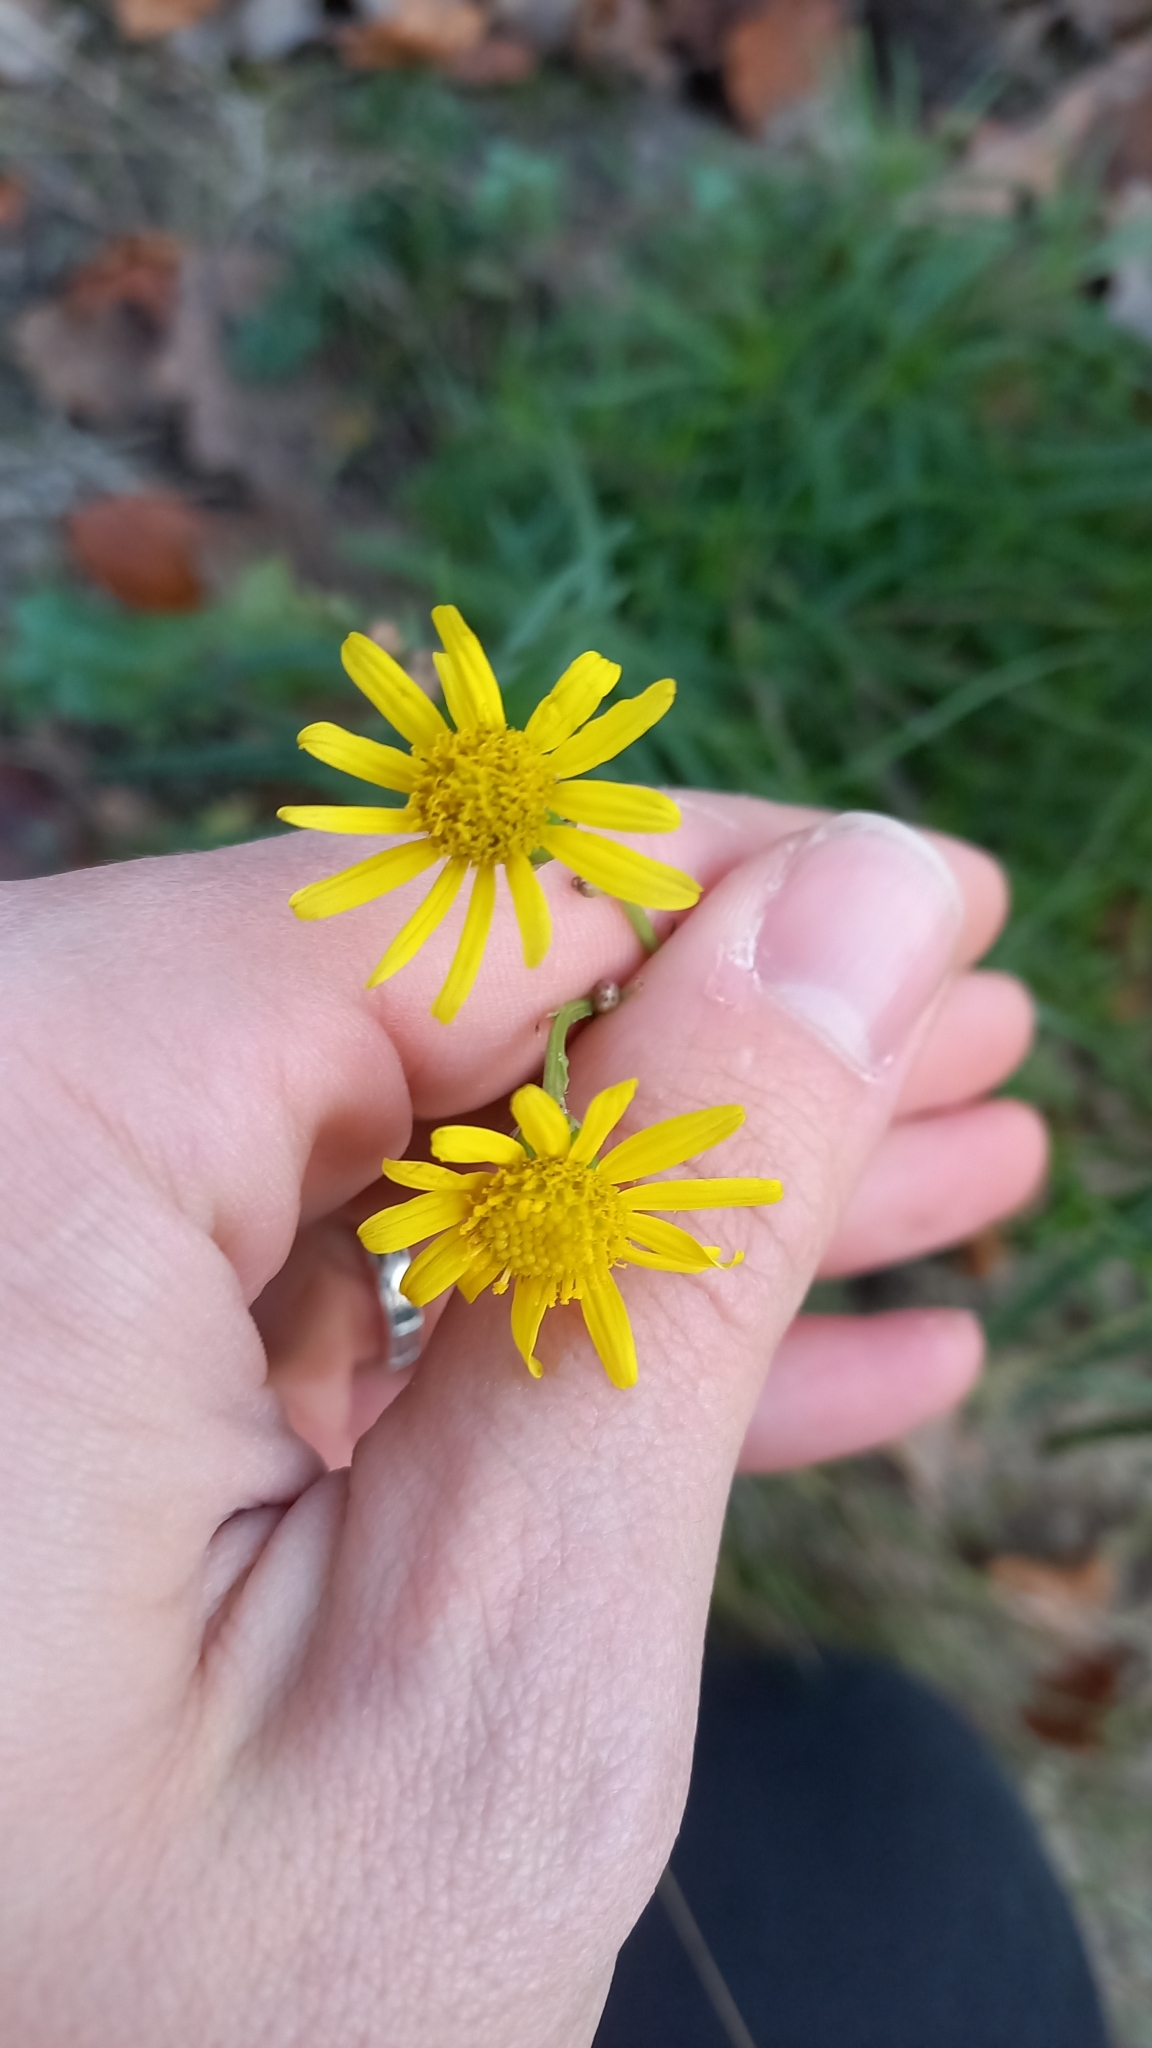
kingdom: Plantae
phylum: Tracheophyta
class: Magnoliopsida
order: Asterales
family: Asteraceae
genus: Senecio
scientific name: Senecio inaequidens
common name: Narrow-leaved ragwort
